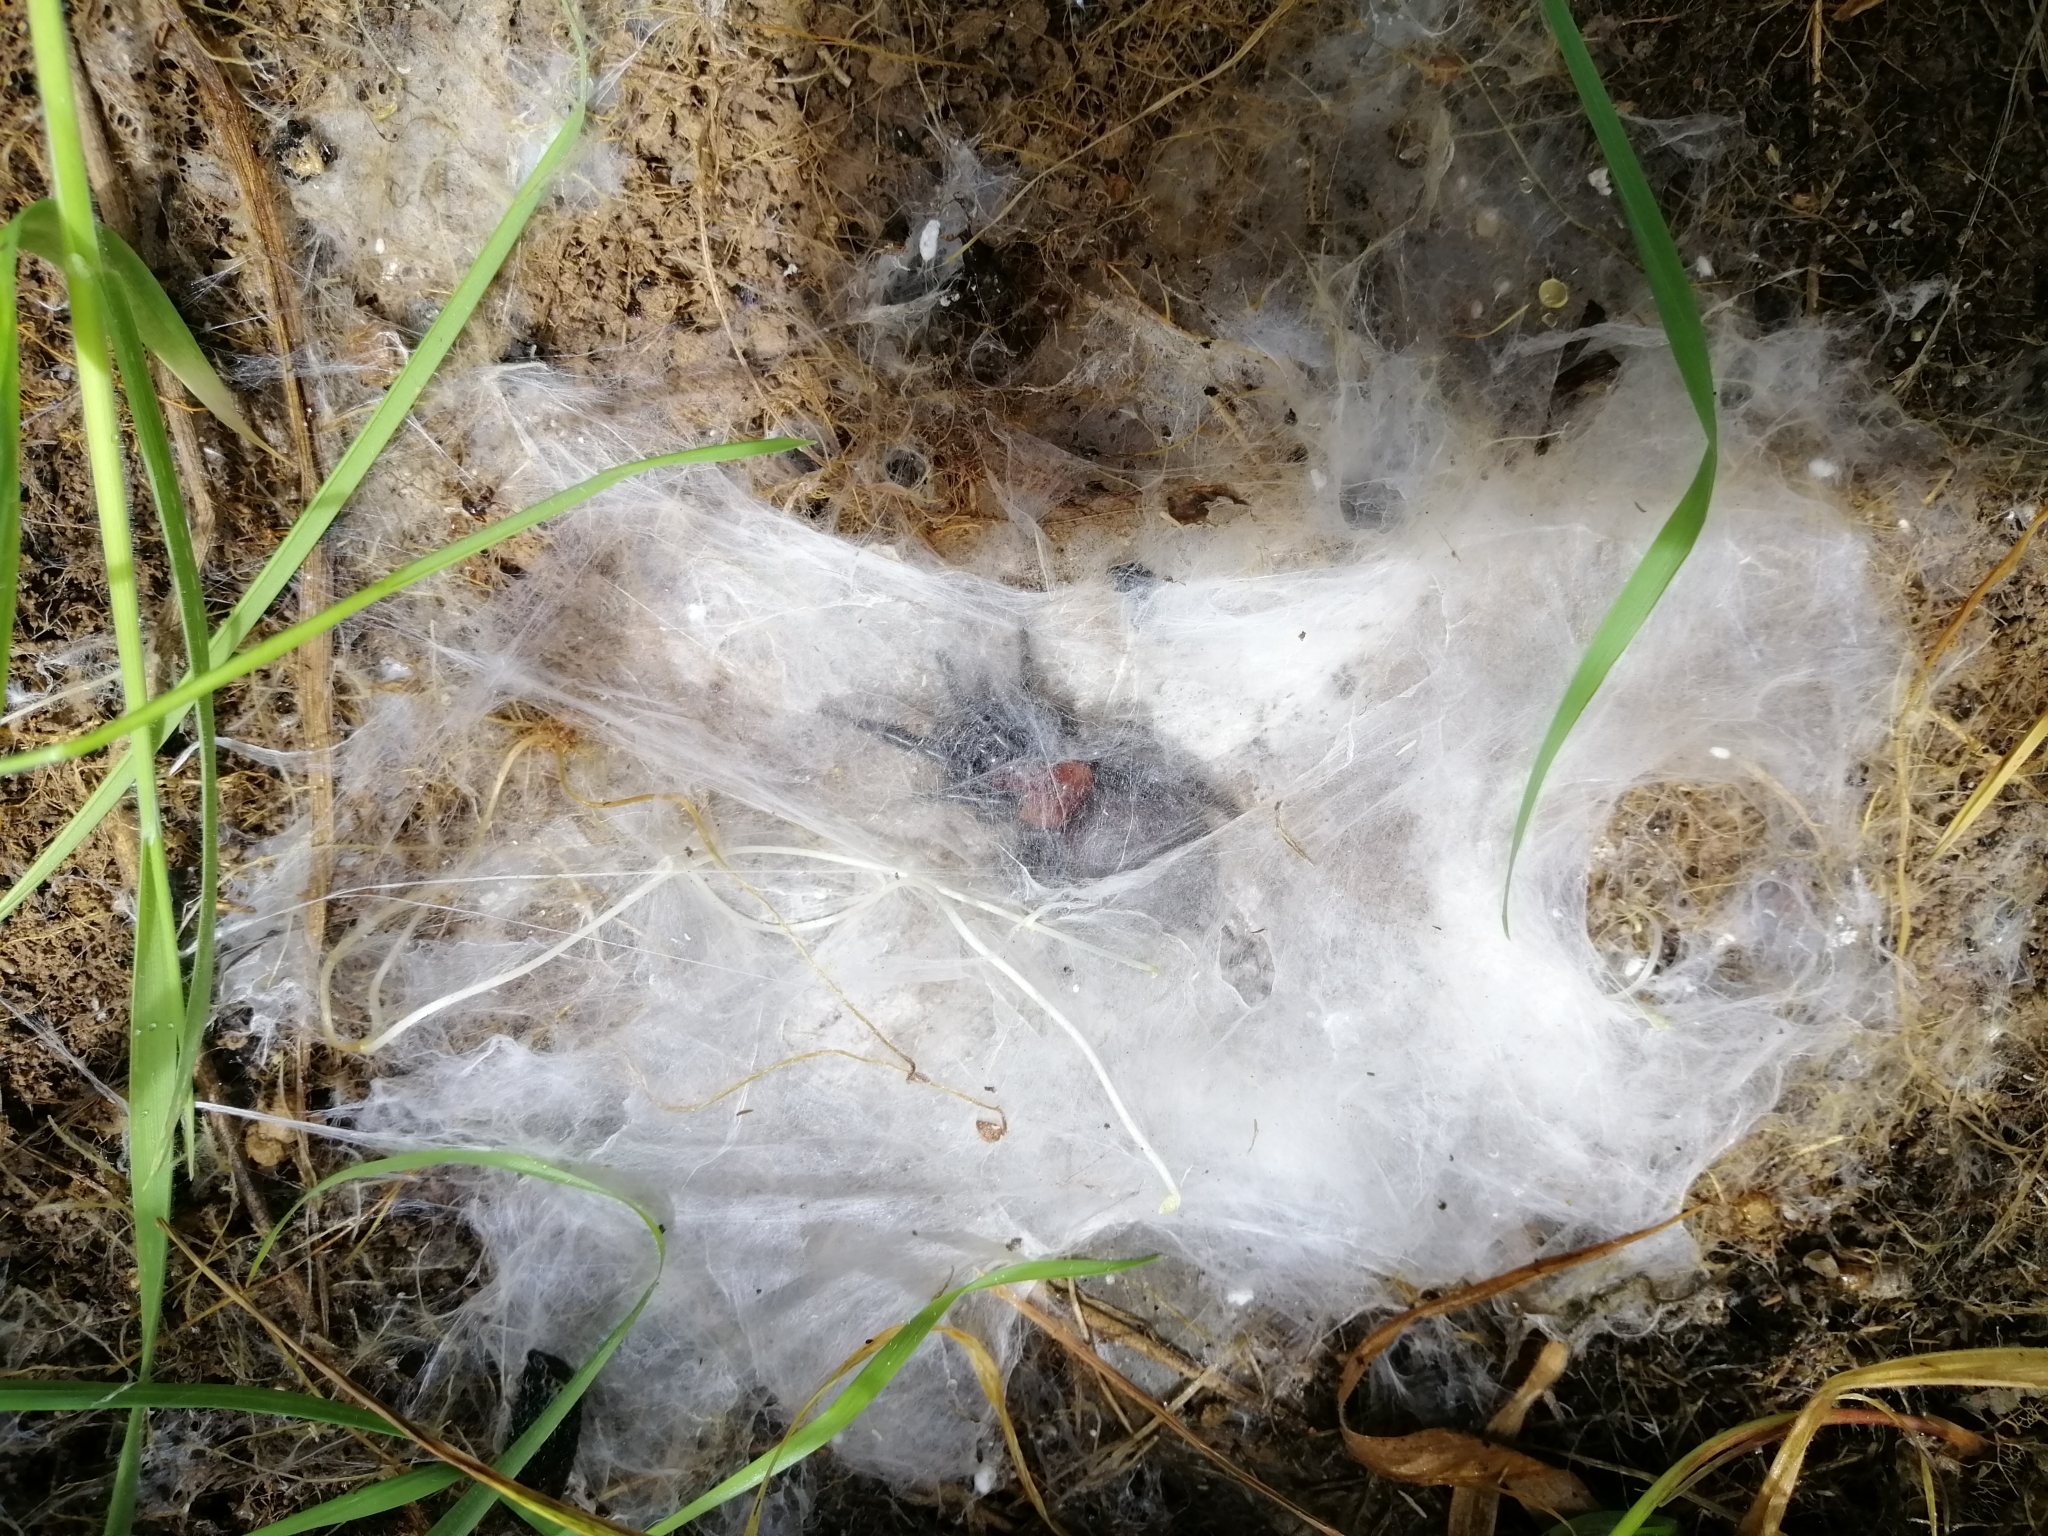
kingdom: Animalia
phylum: Arthropoda
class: Arachnida
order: Araneae
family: Porrhothelidae
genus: Porrhothele
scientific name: Porrhothele antipodiana
